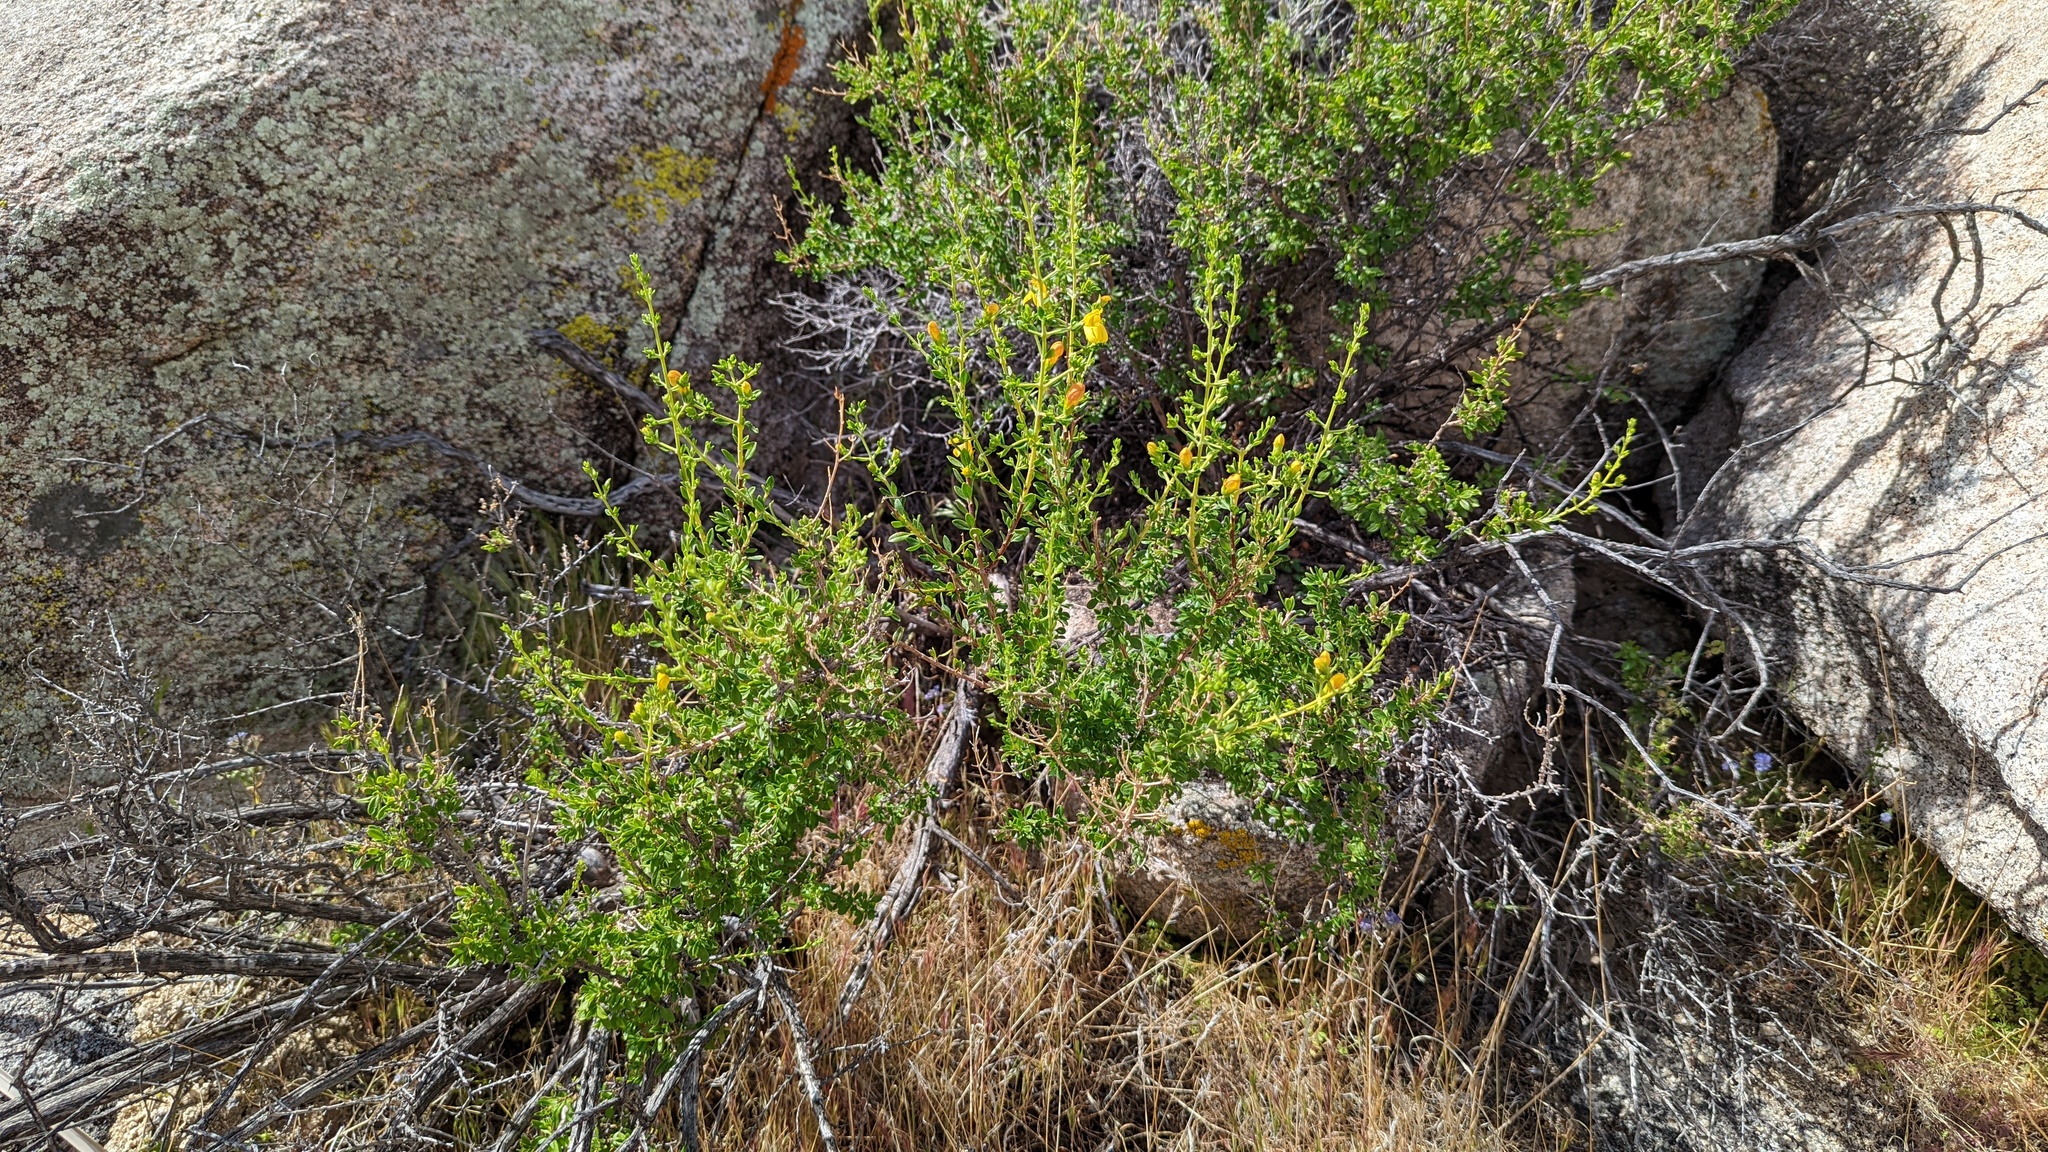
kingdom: Plantae
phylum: Tracheophyta
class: Magnoliopsida
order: Lamiales
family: Plantaginaceae
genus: Keckiella
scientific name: Keckiella antirrhinoides
